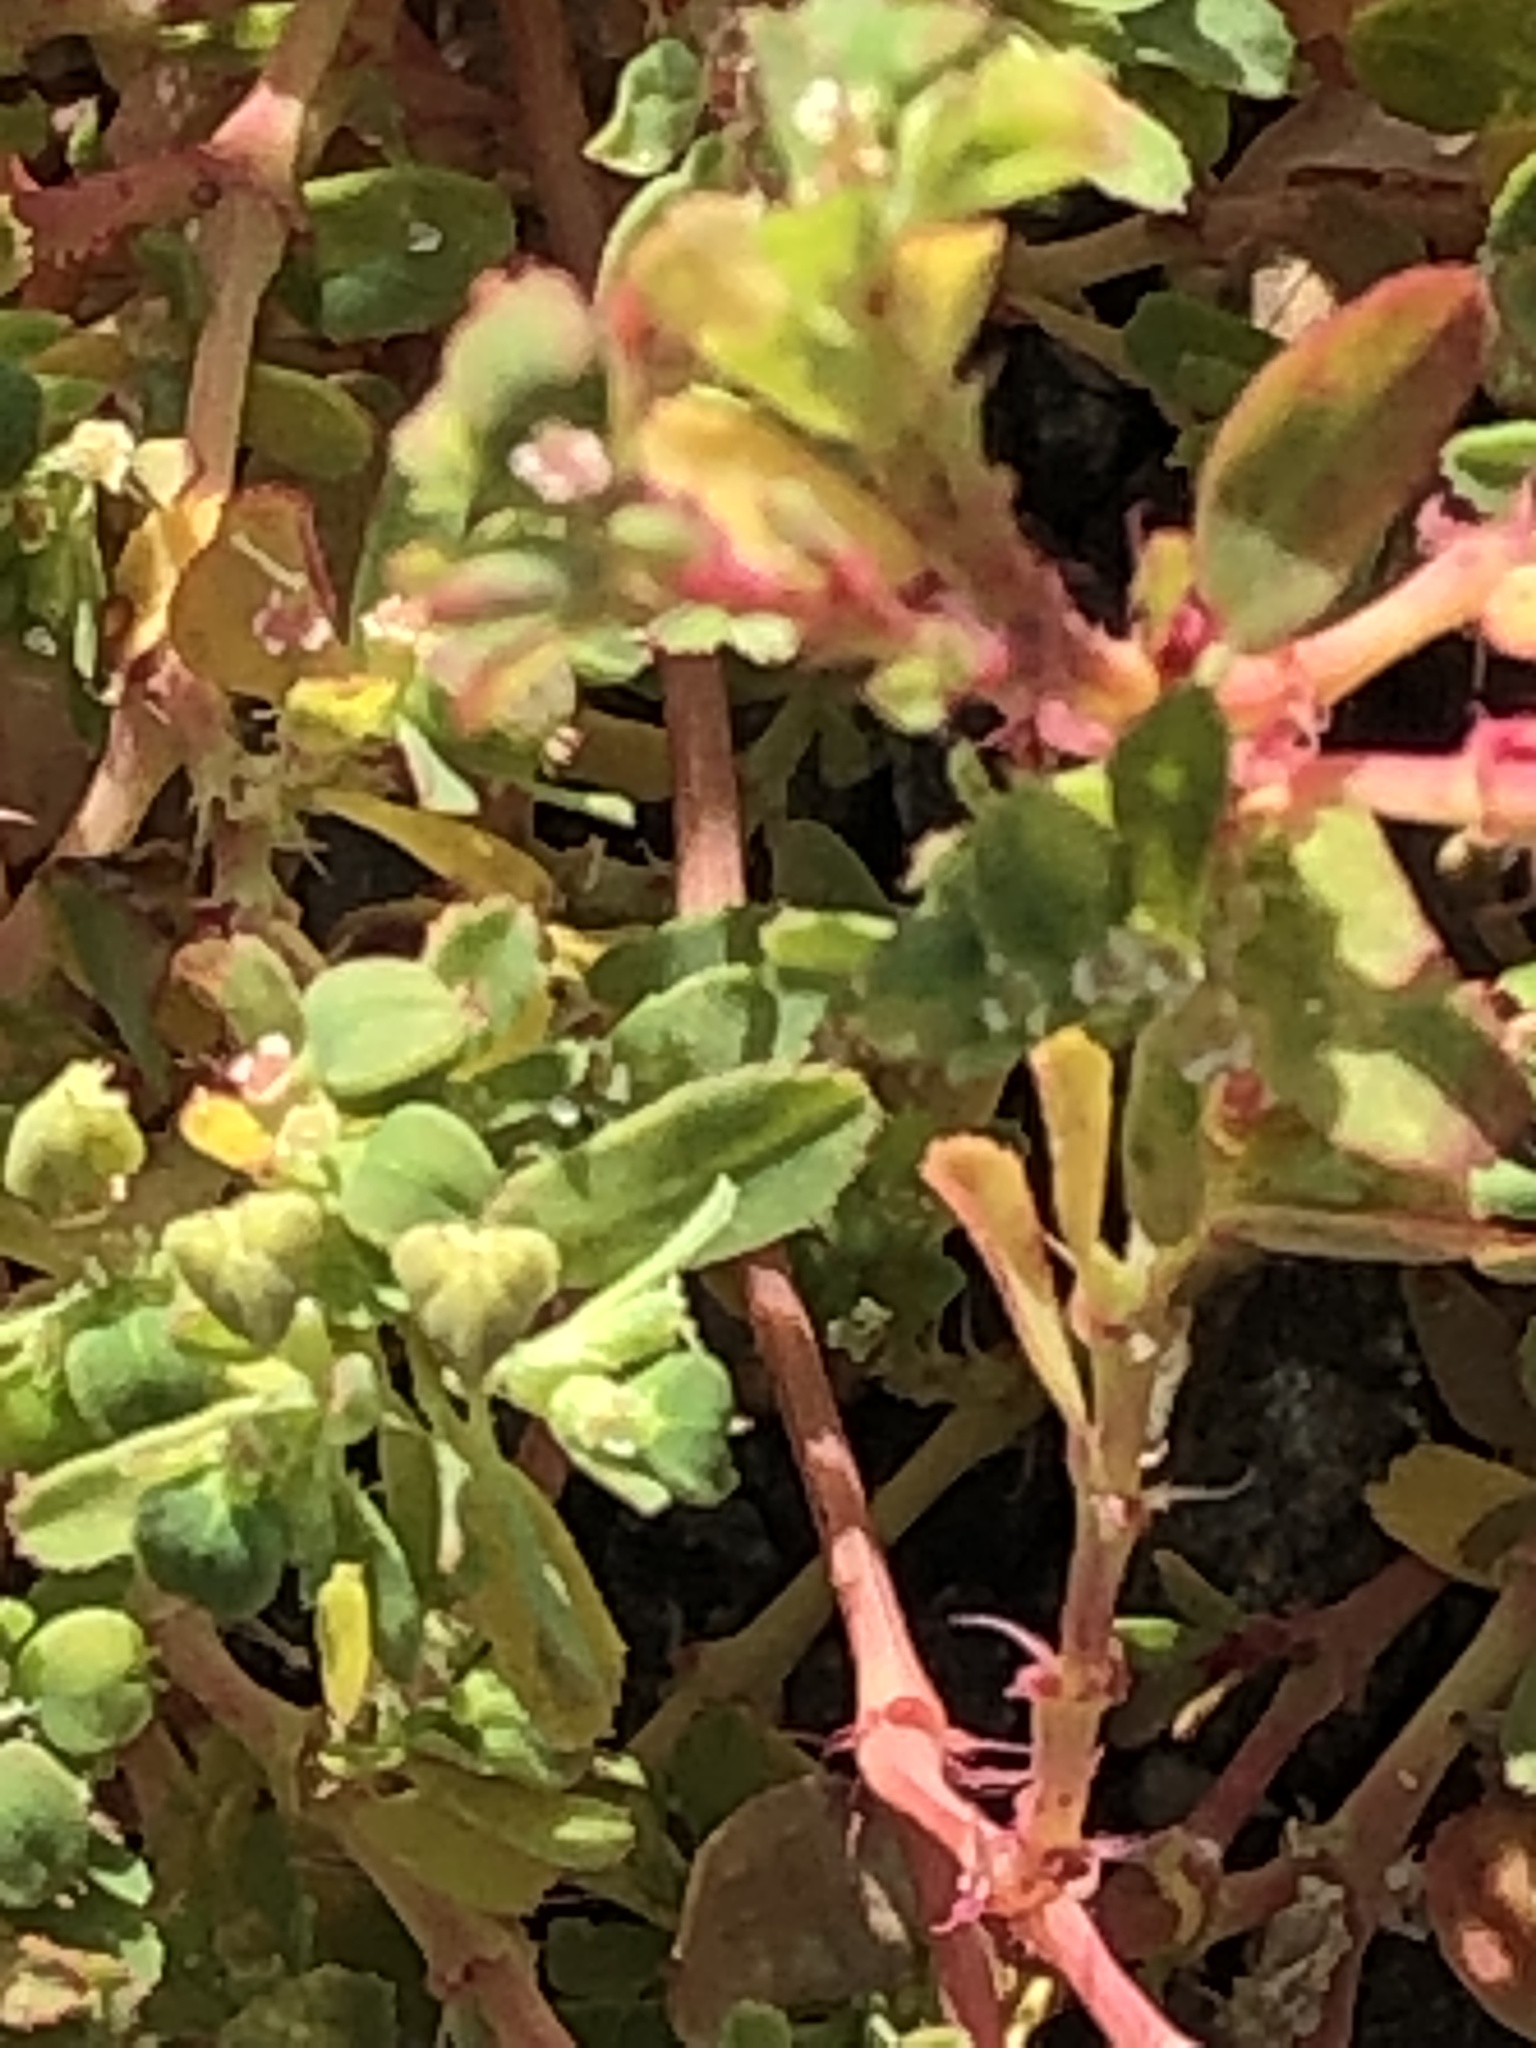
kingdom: Plantae
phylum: Tracheophyta
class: Magnoliopsida
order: Malpighiales
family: Euphorbiaceae
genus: Euphorbia
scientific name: Euphorbia serpillifolia
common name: Thyme-leaf spurge
